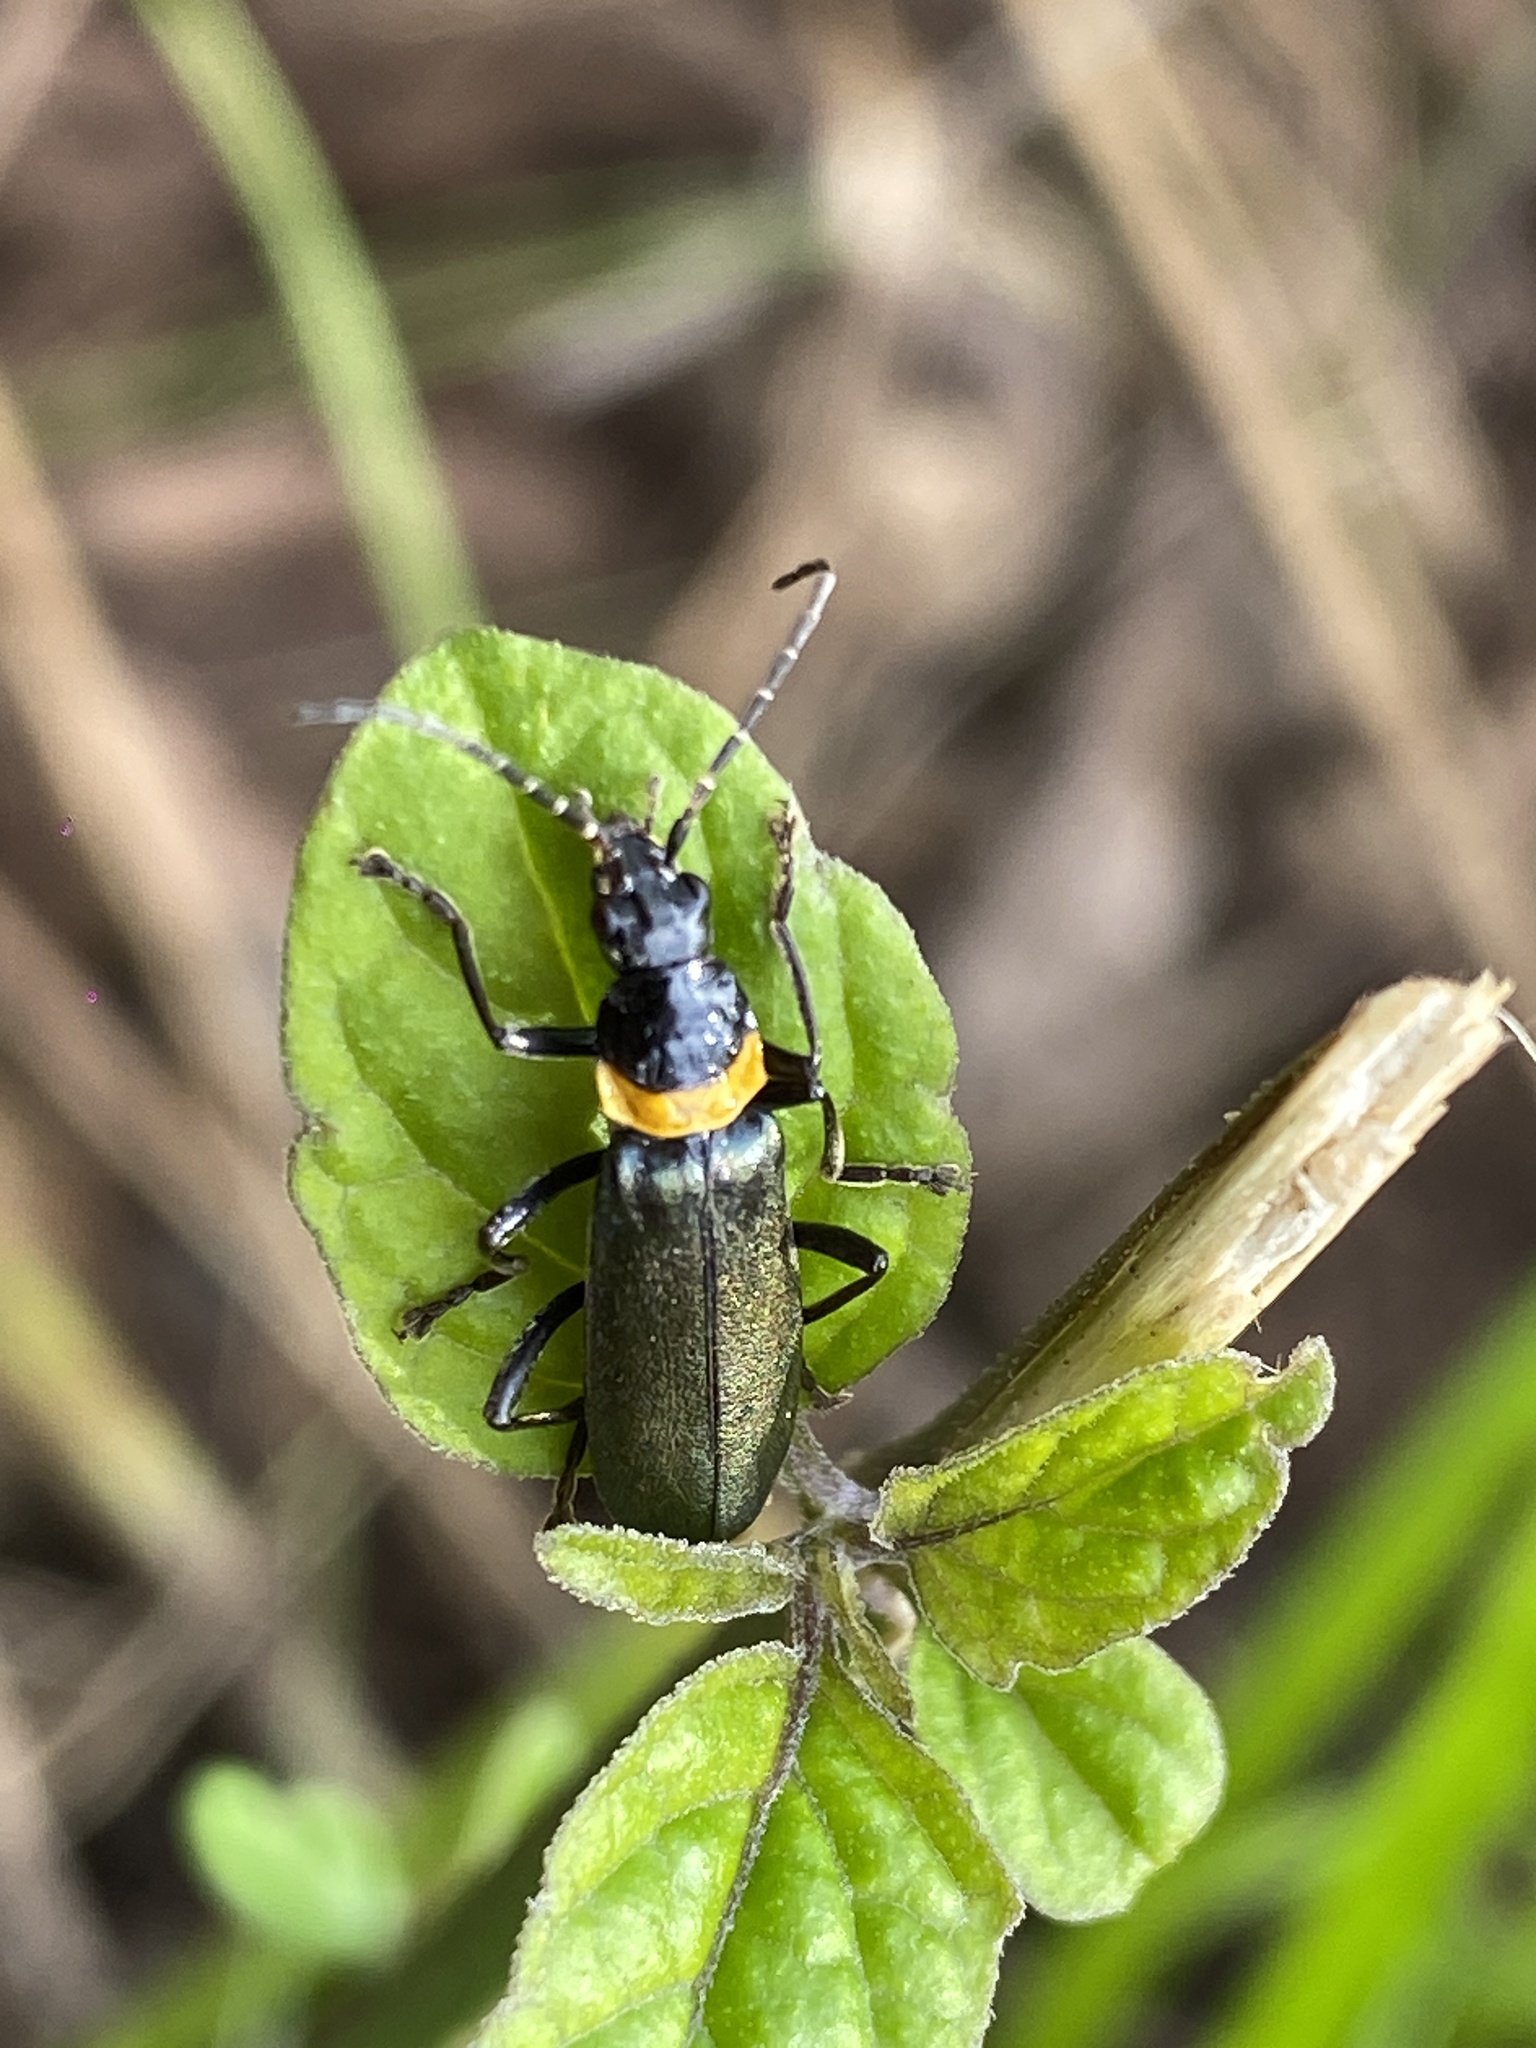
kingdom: Animalia
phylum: Arthropoda
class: Insecta
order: Coleoptera
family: Cantharidae
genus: Chauliognathus
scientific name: Chauliognathus
